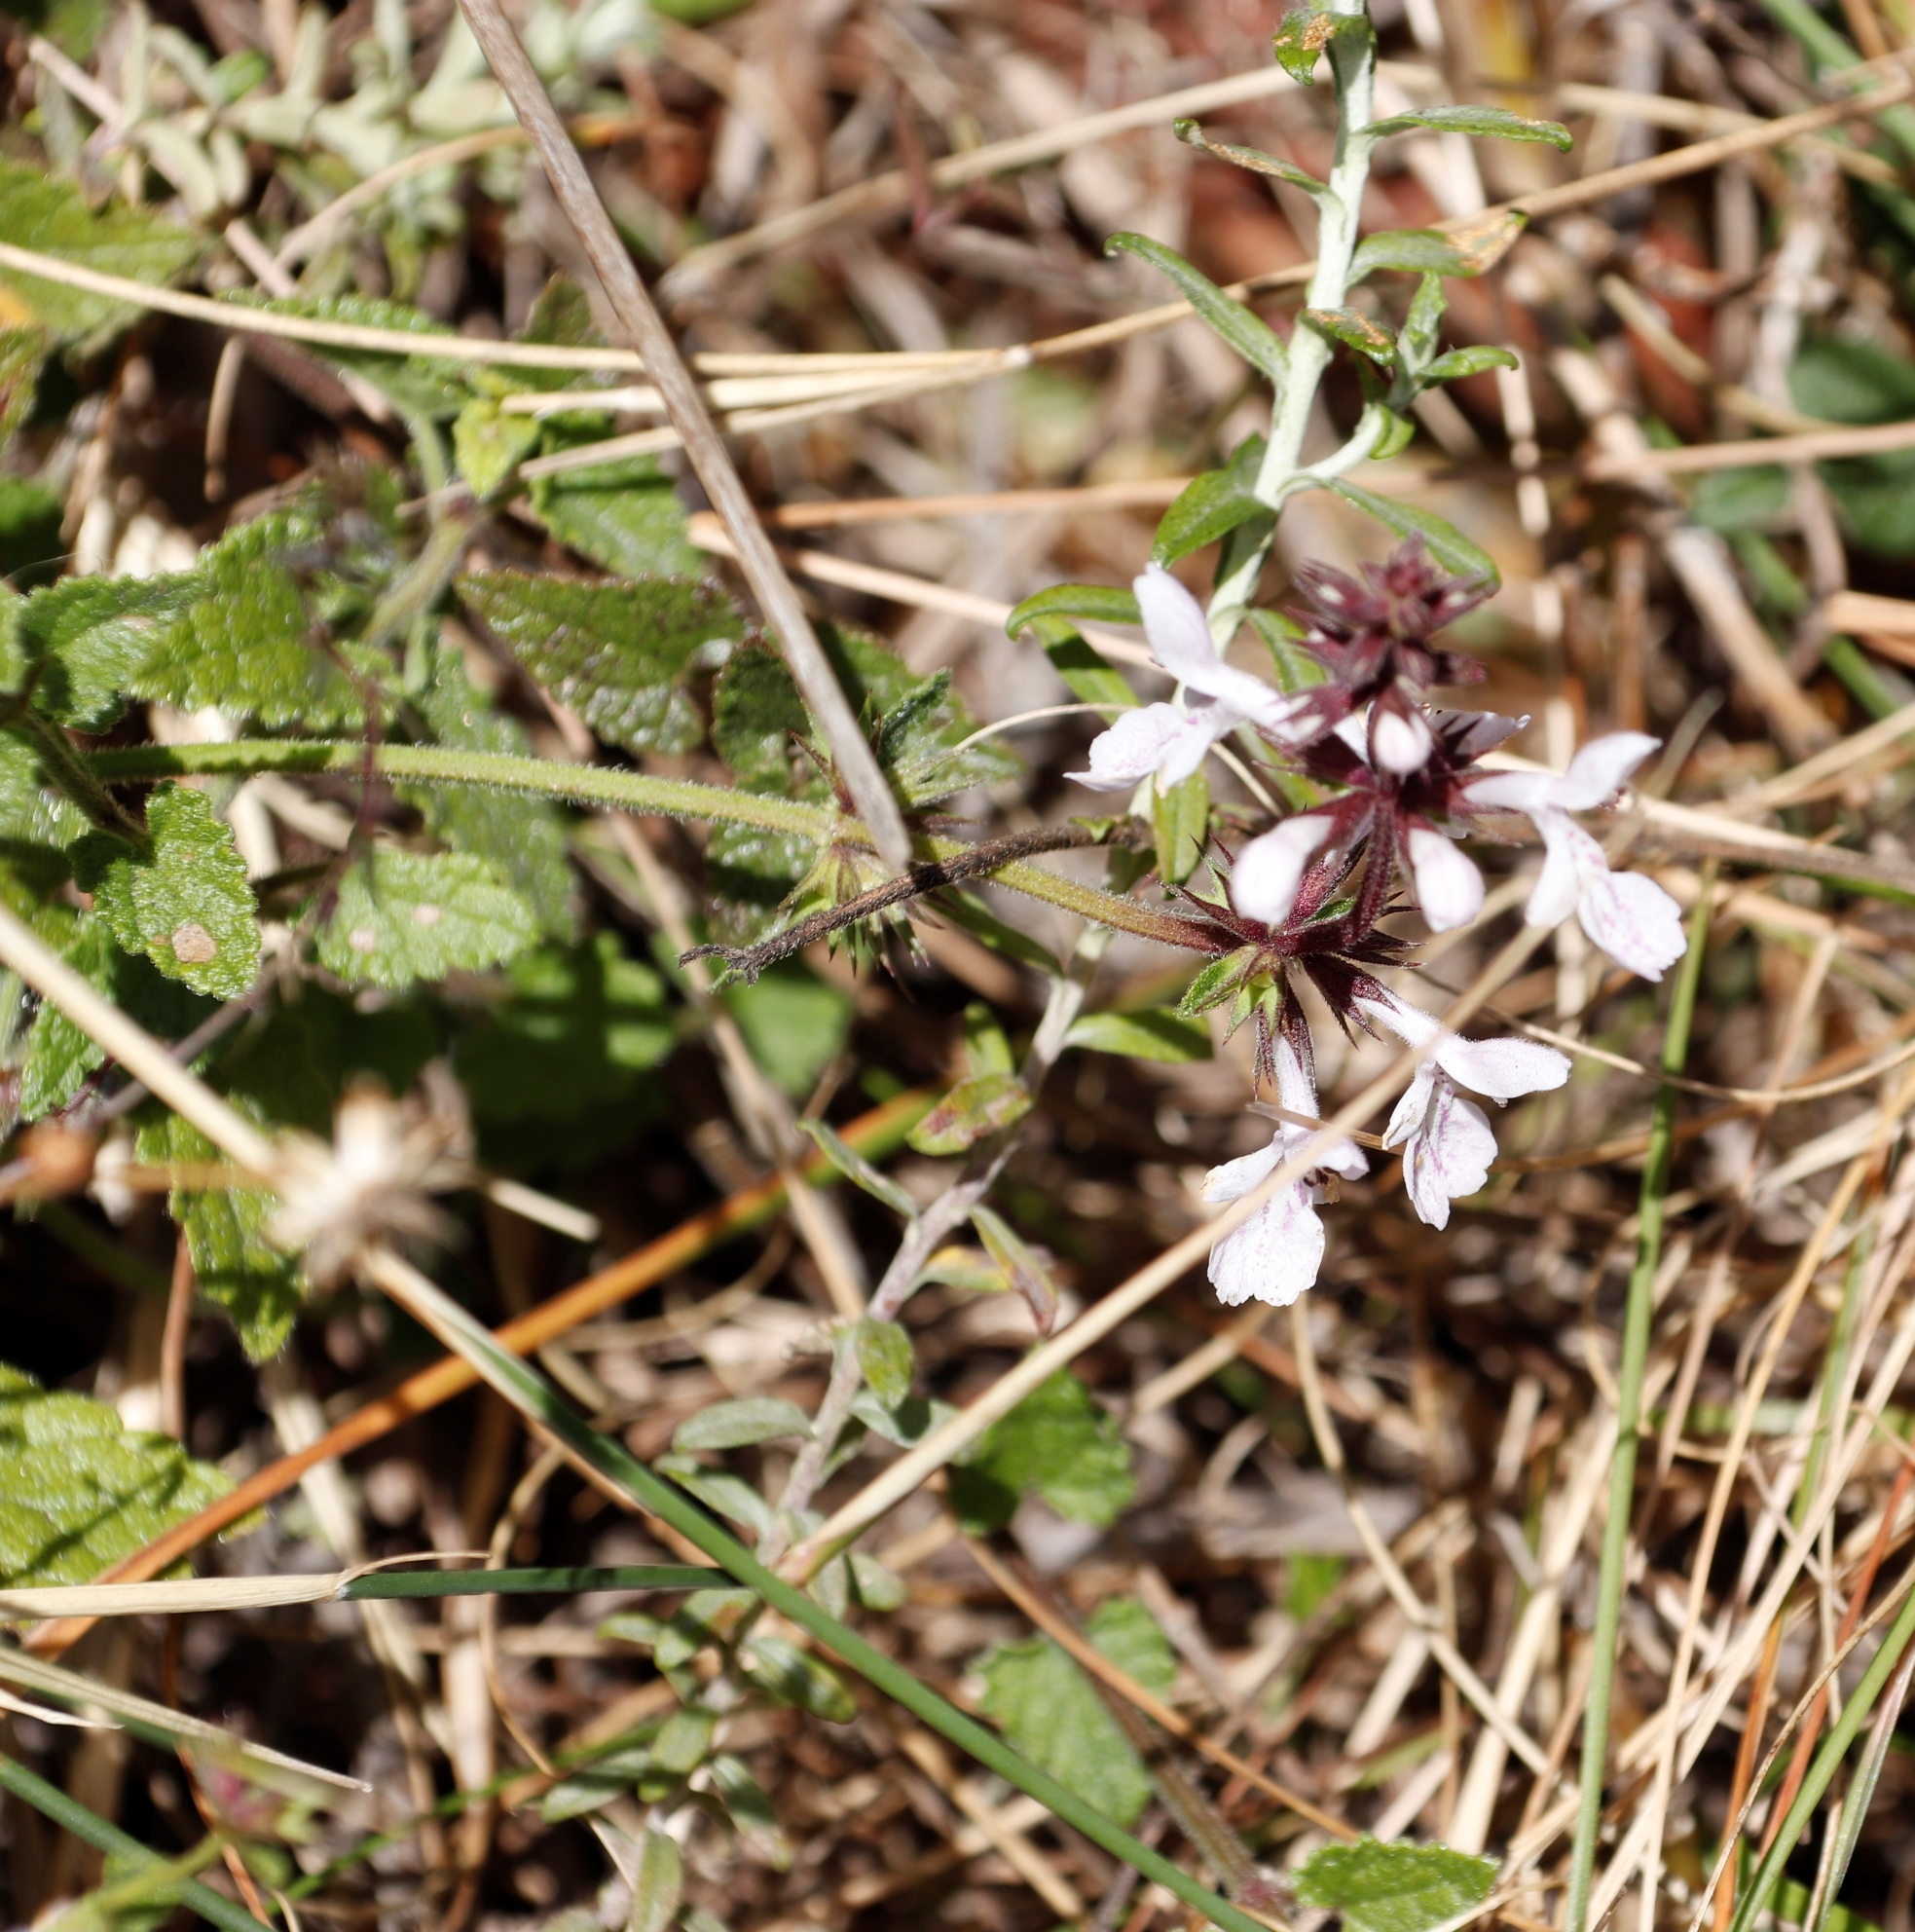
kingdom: Plantae
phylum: Tracheophyta
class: Magnoliopsida
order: Lamiales
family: Lamiaceae
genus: Stachys
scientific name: Stachys aethiopica
